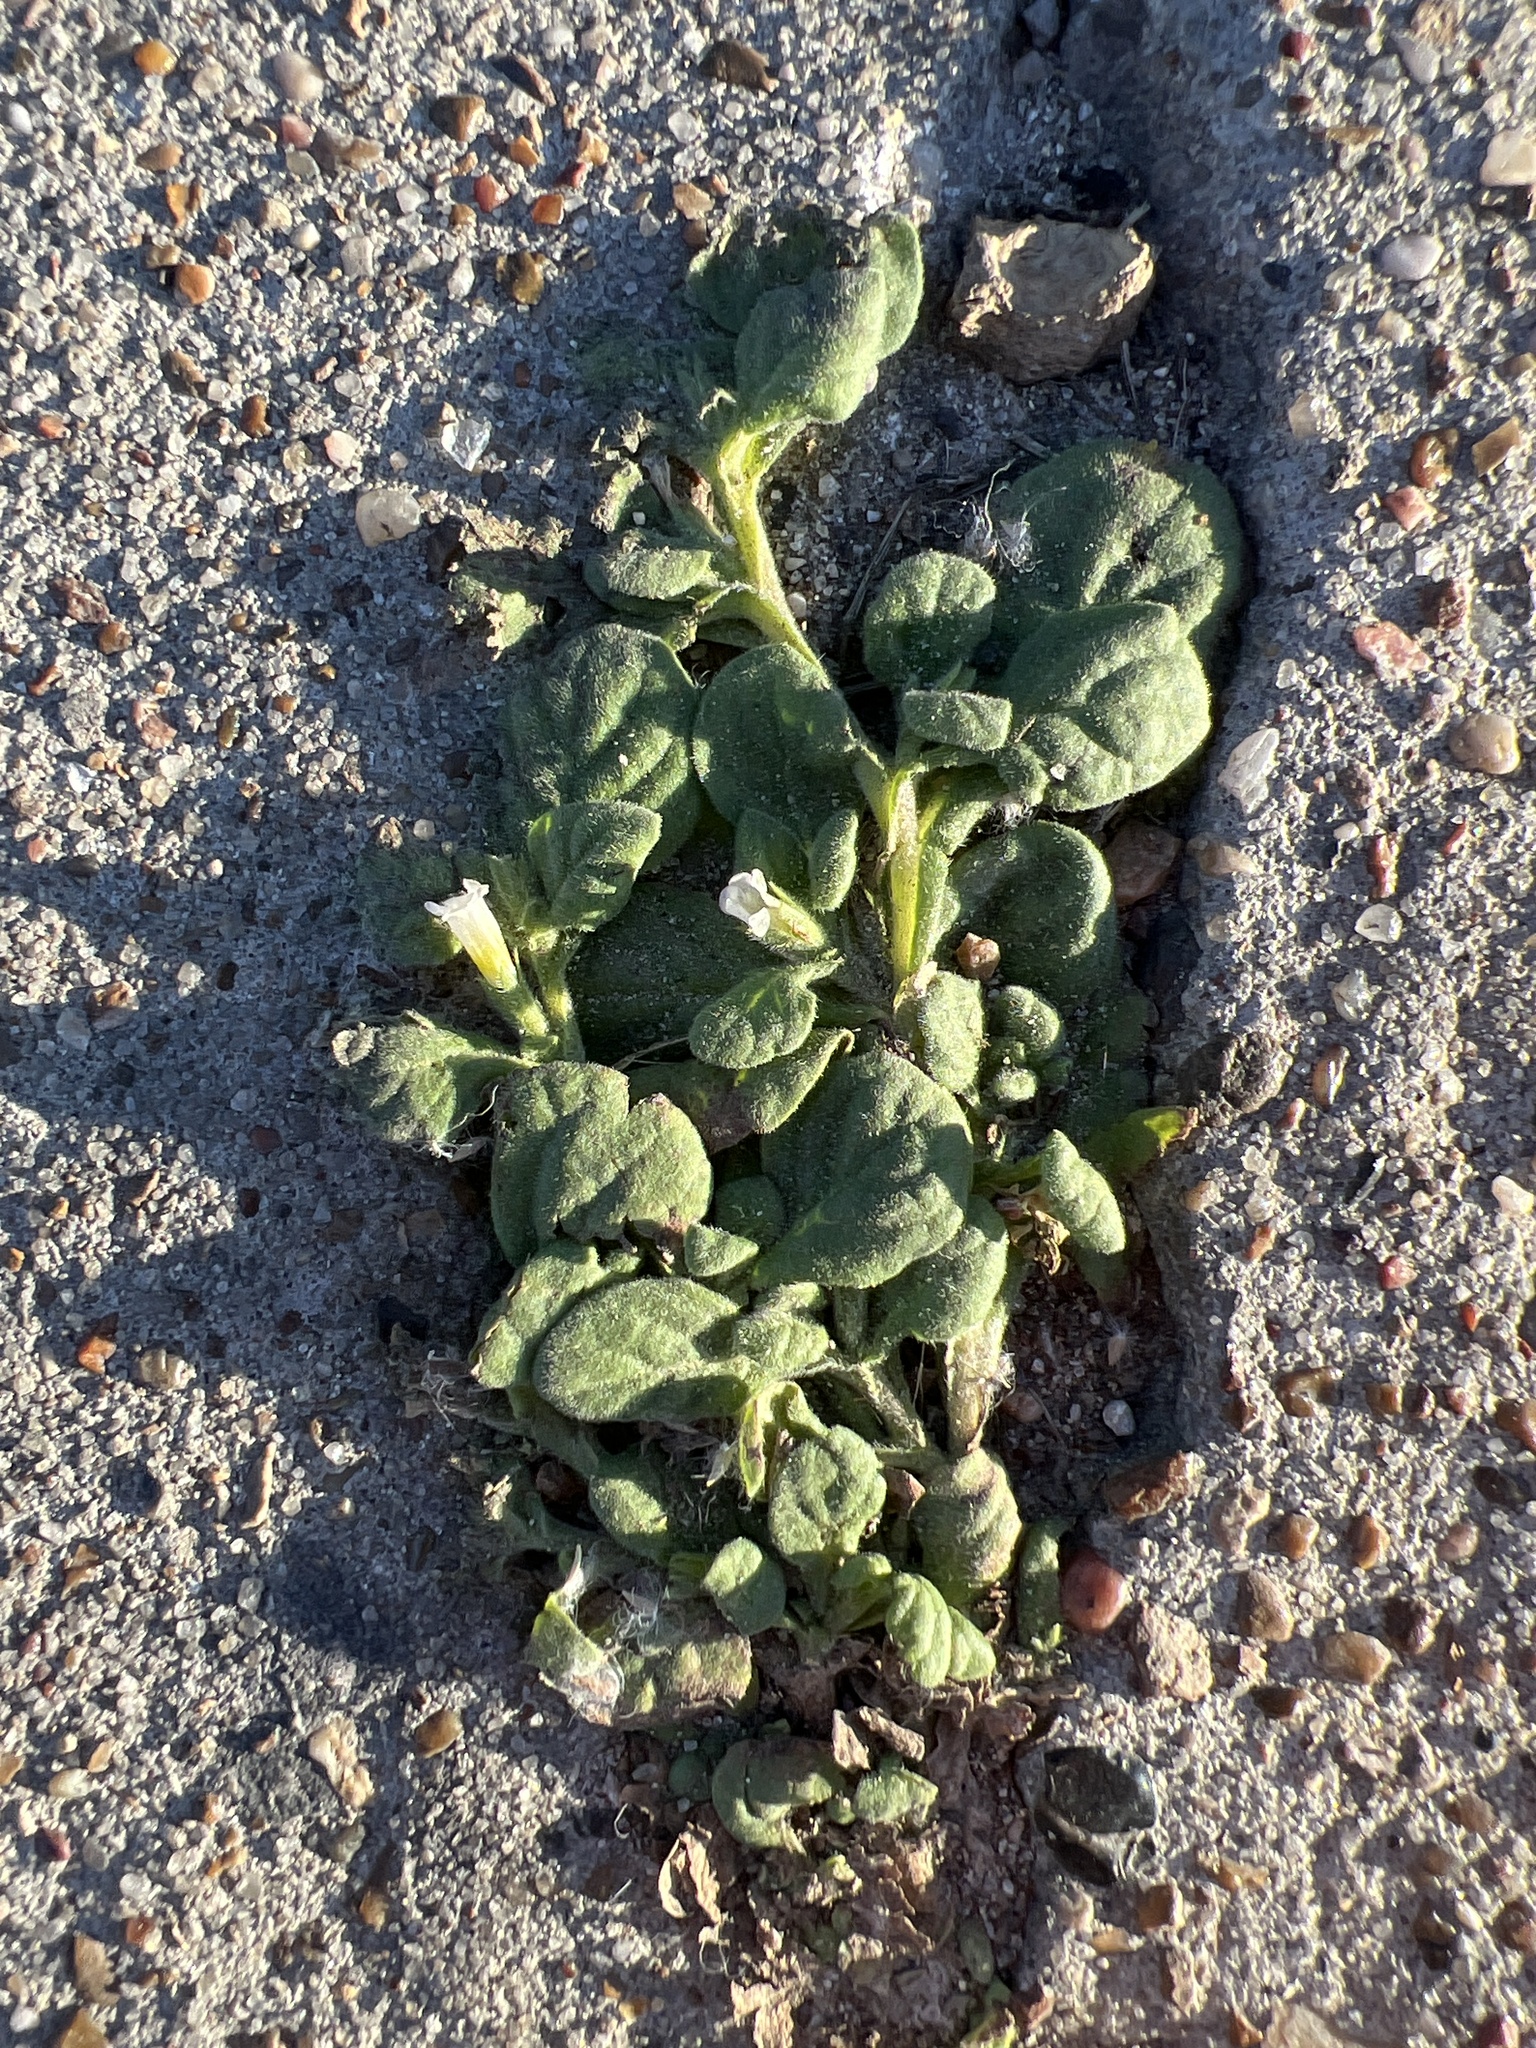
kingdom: Plantae
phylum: Tracheophyta
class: Magnoliopsida
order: Boraginales
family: Namaceae
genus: Nama
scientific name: Nama jamaicensis
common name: Jamaicanweed
